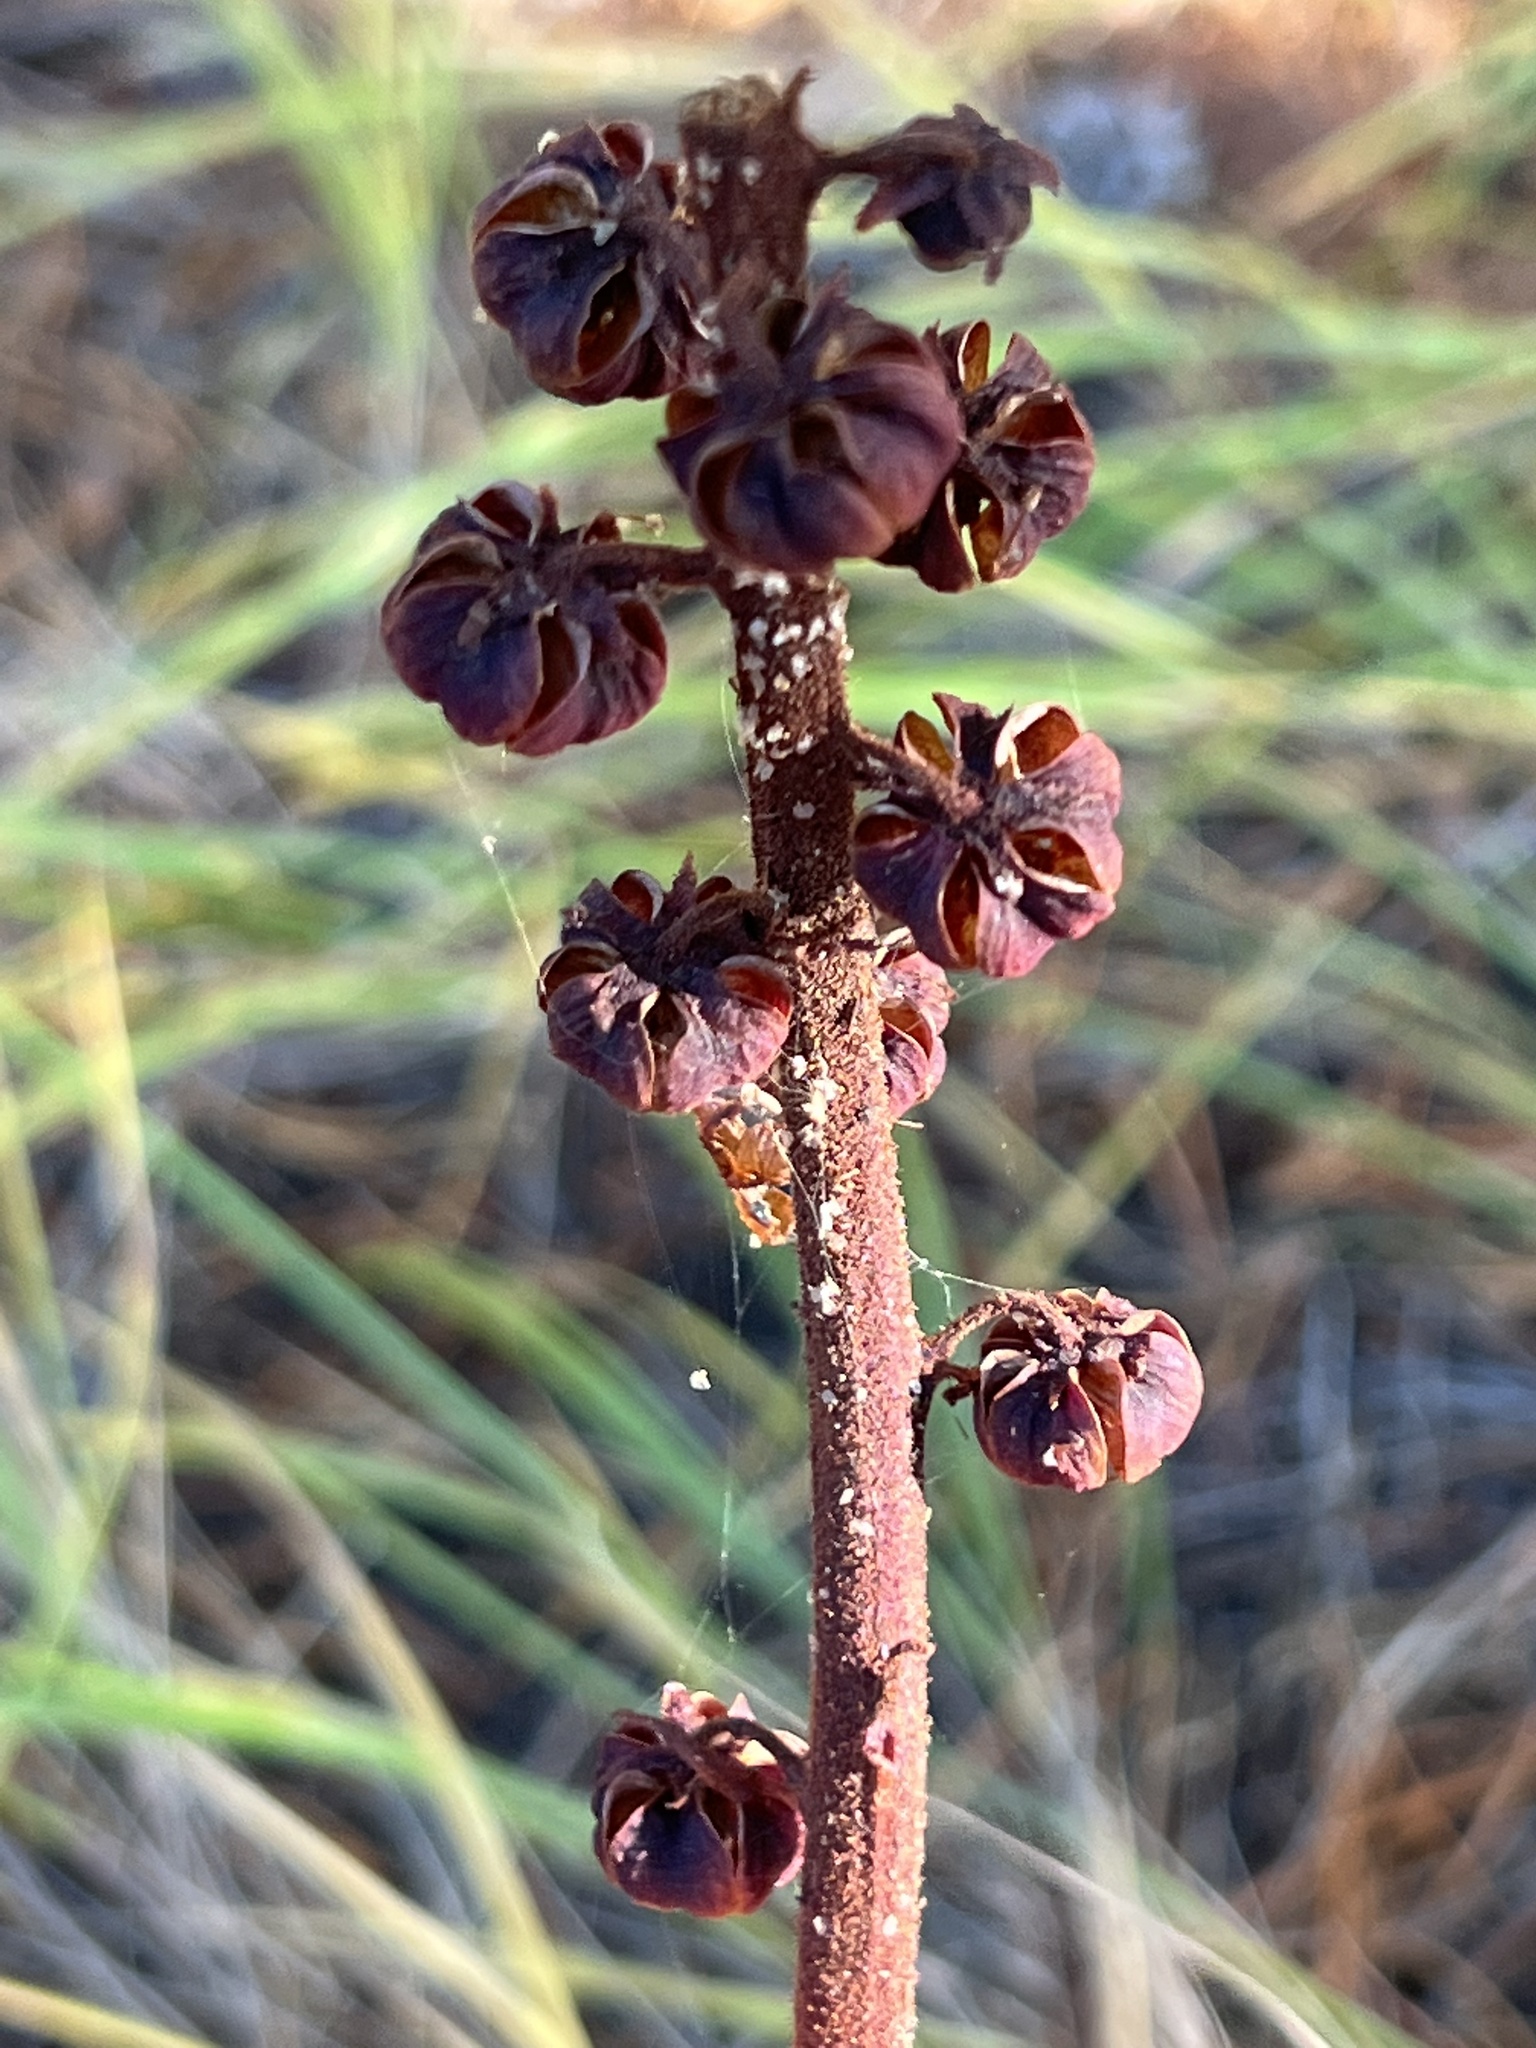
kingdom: Plantae
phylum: Tracheophyta
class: Magnoliopsida
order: Ericales
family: Ericaceae
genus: Pterospora
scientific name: Pterospora andromedea
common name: Giant bird's-nest
